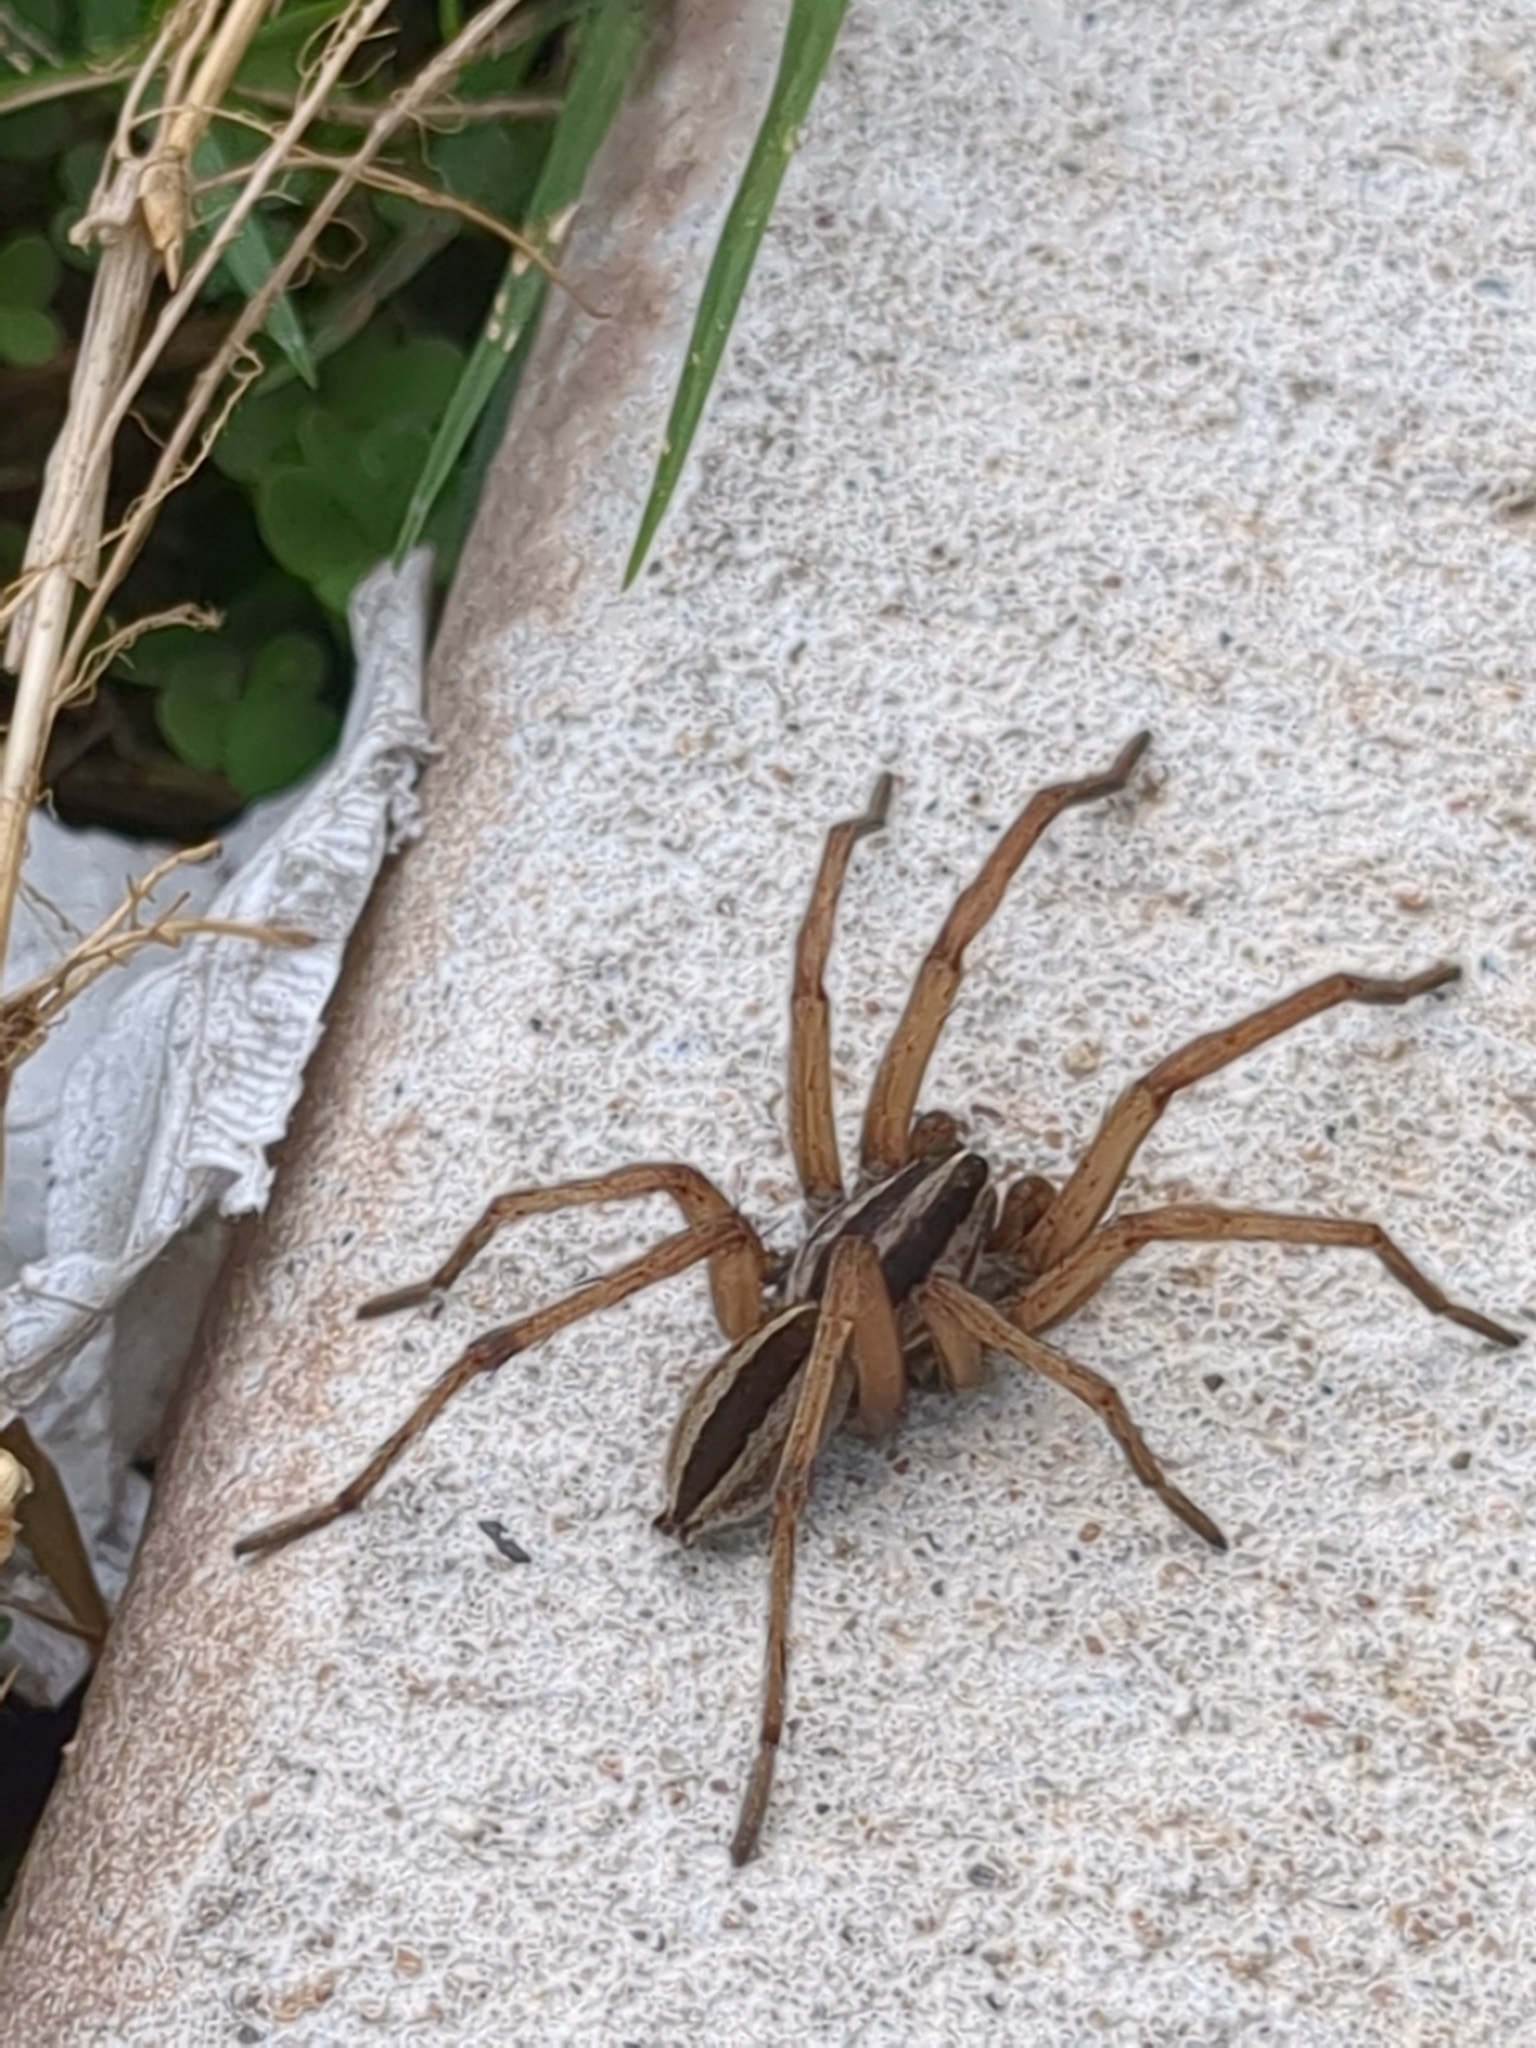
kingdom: Animalia
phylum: Arthropoda
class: Arachnida
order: Araneae
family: Lycosidae
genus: Rabidosa
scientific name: Rabidosa punctulata
